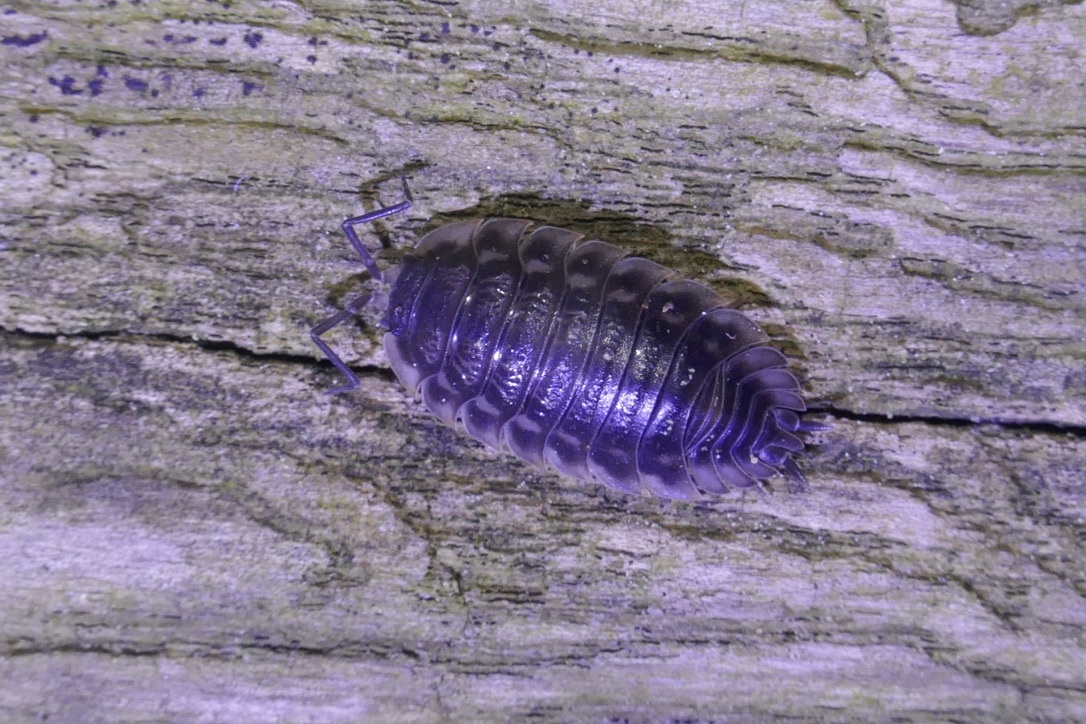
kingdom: Animalia
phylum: Arthropoda
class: Malacostraca
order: Isopoda
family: Oniscidae
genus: Oniscus
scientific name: Oniscus asellus
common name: Common shiny woodlouse
